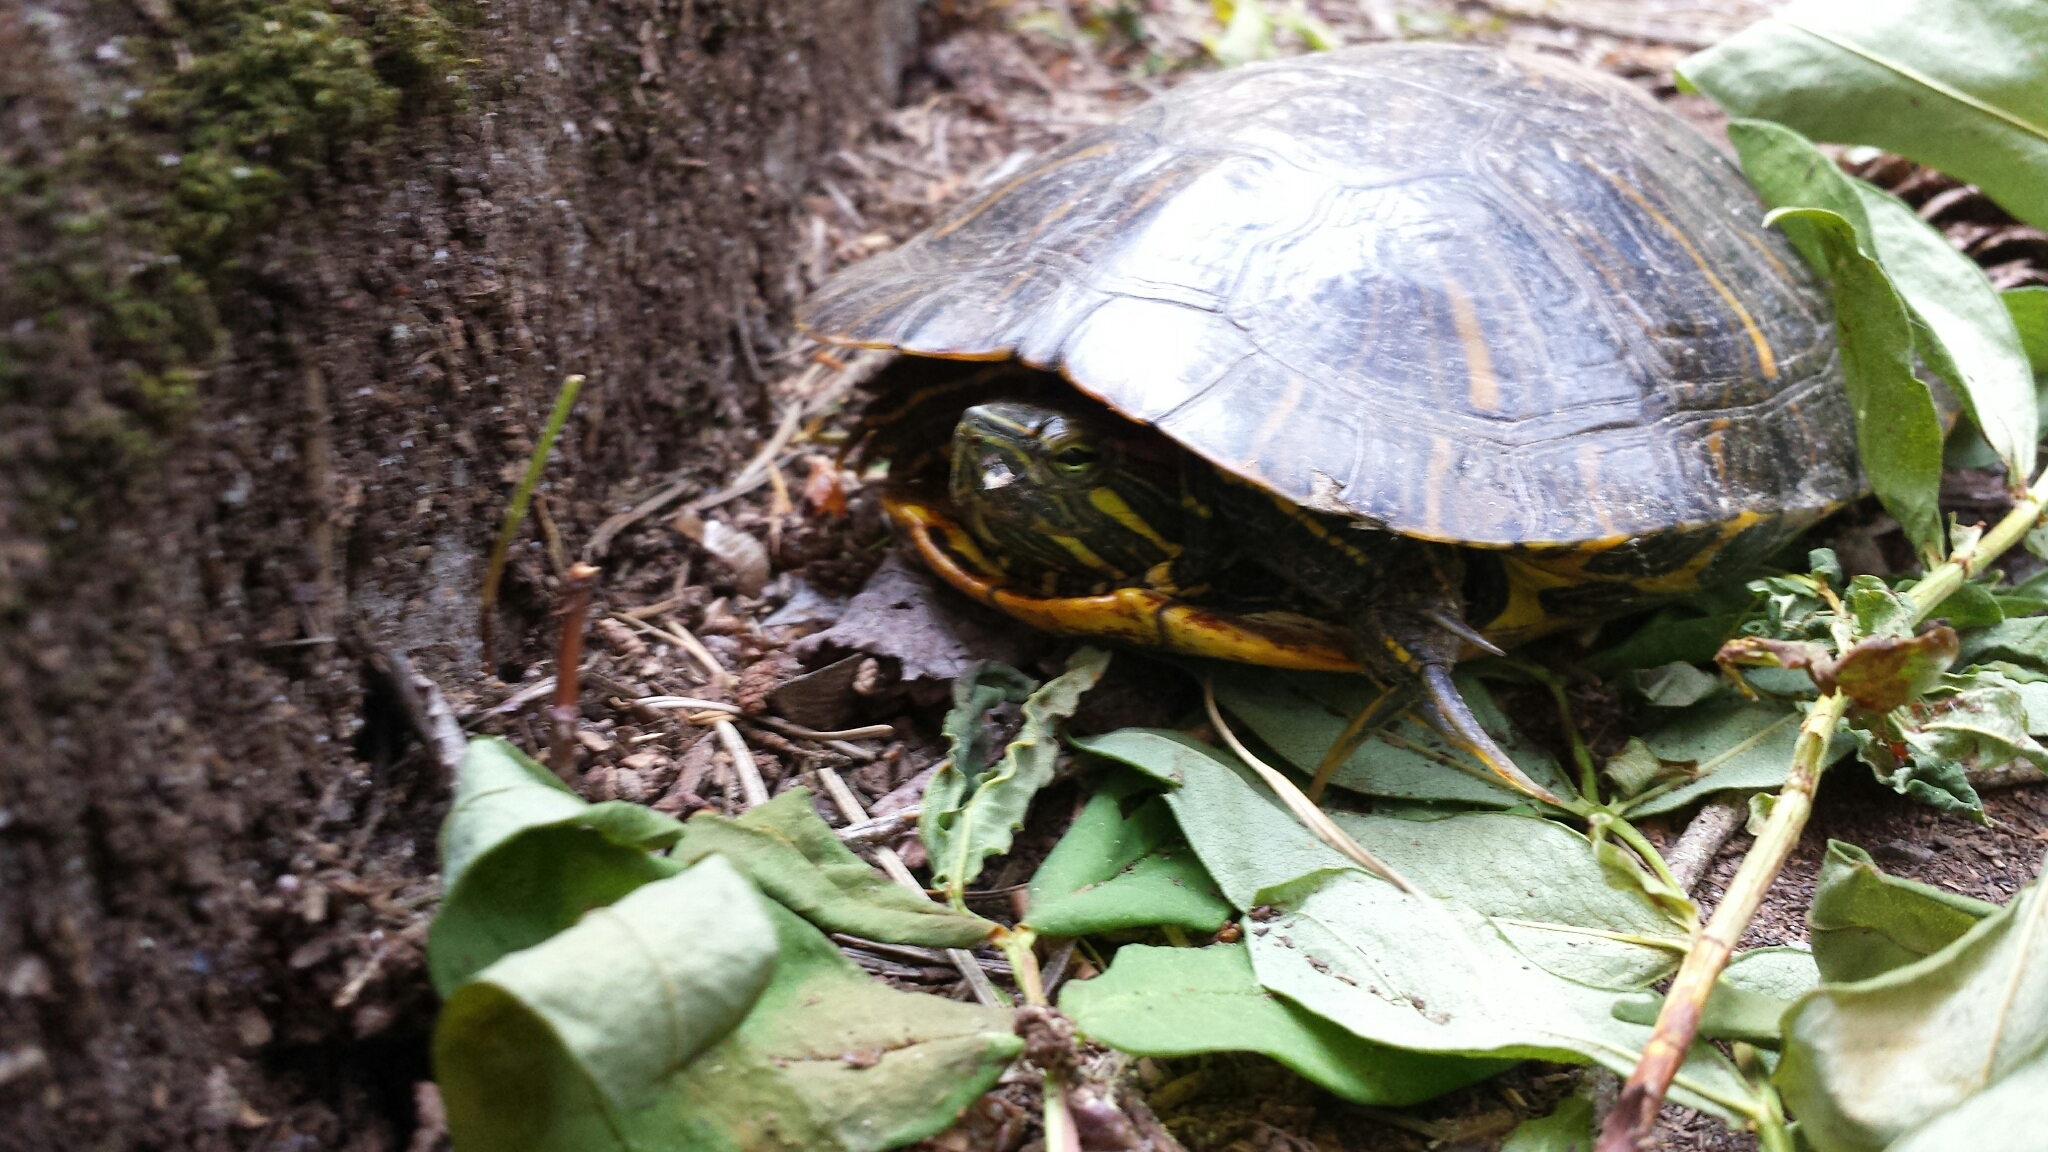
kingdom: Animalia
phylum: Chordata
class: Testudines
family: Emydidae
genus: Trachemys
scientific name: Trachemys scripta
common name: Slider
